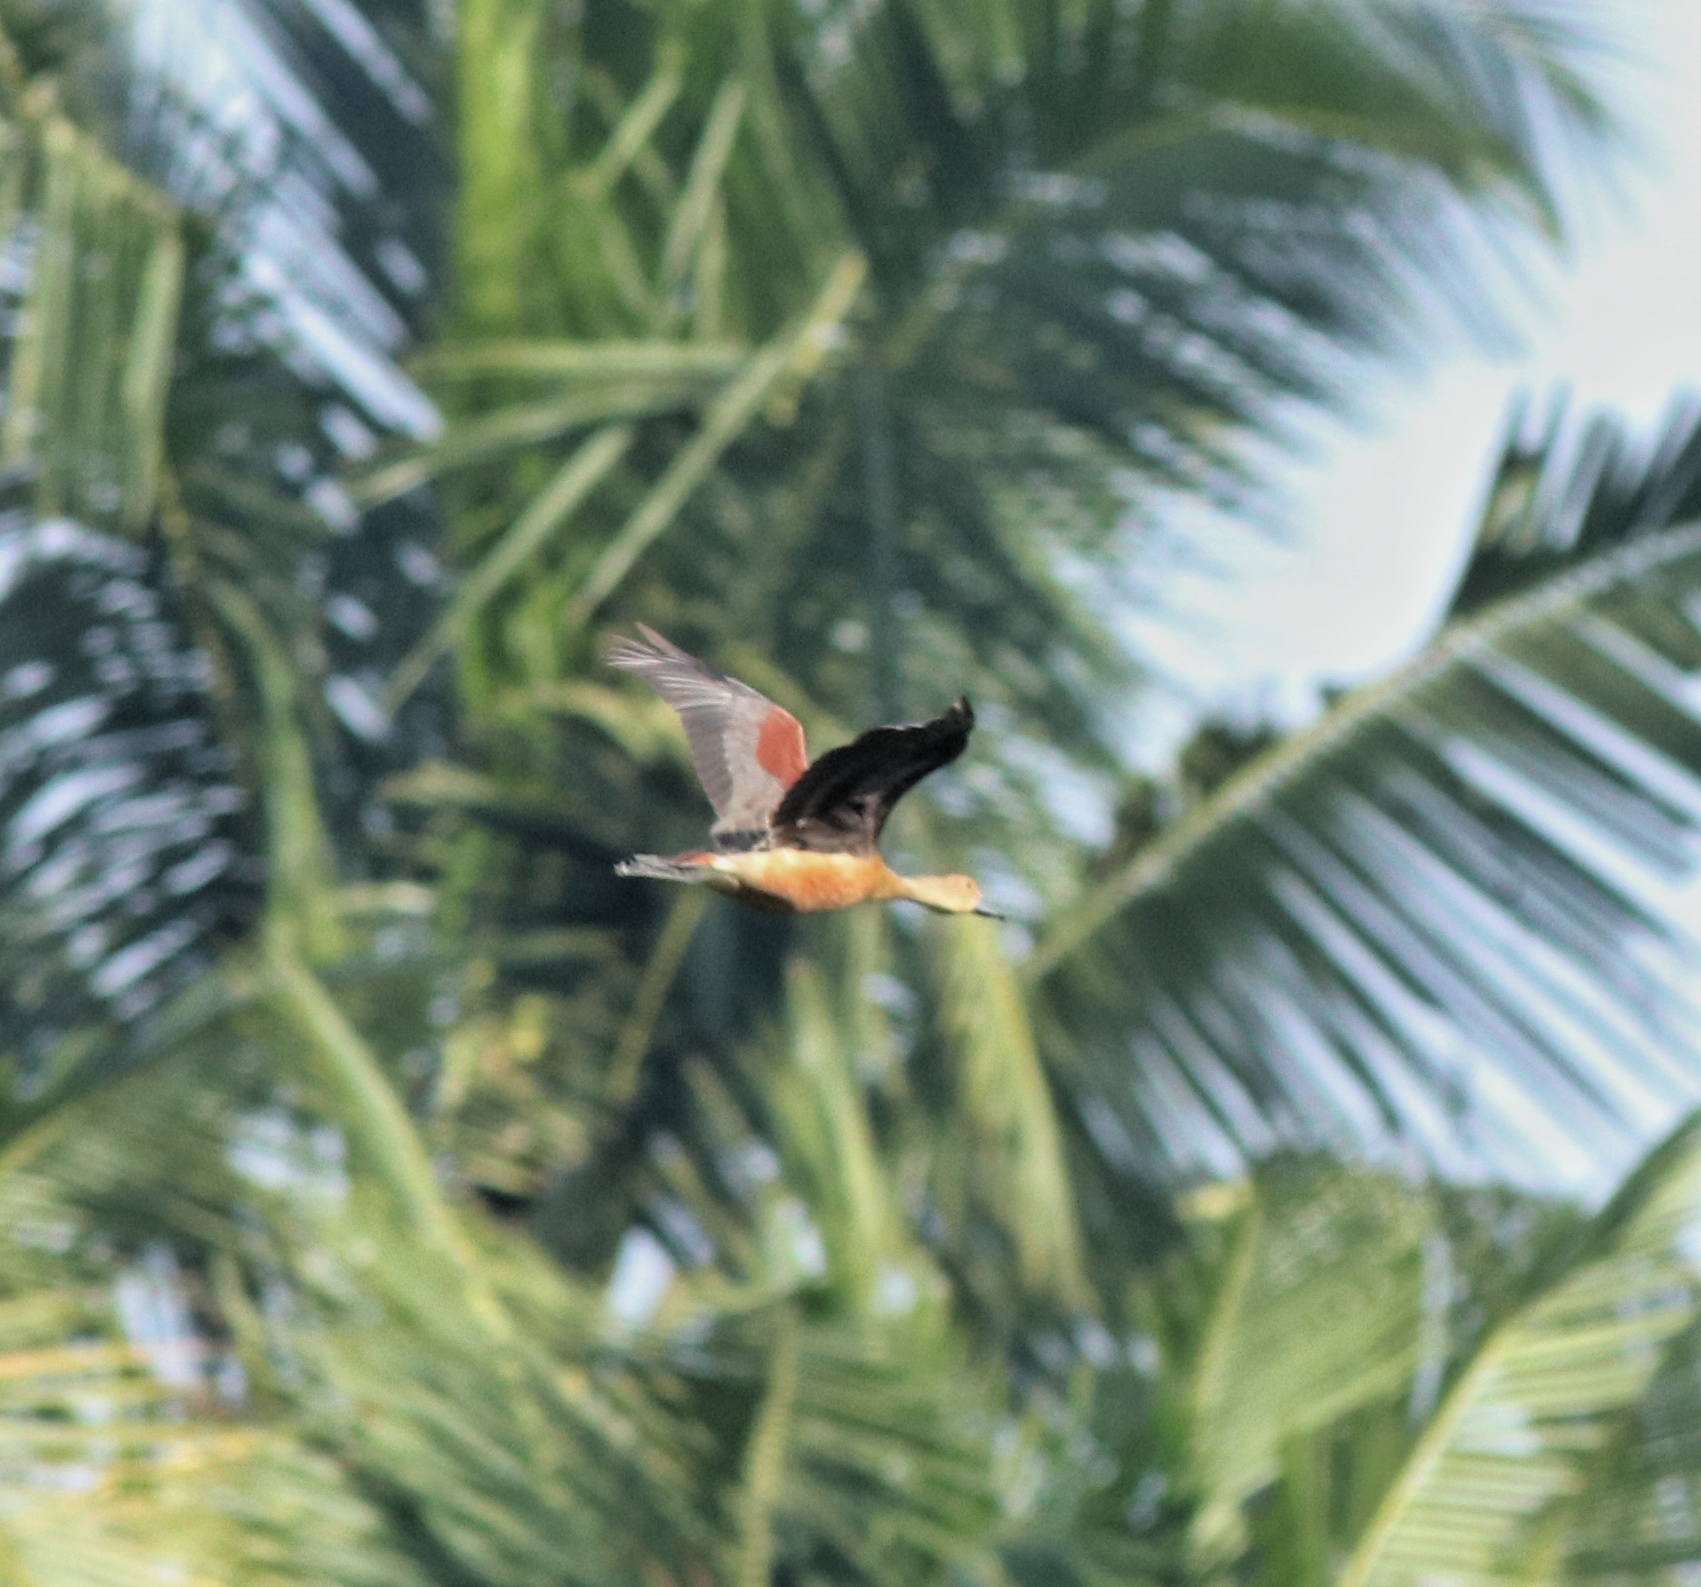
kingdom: Animalia
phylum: Chordata
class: Aves
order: Anseriformes
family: Anatidae
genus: Dendrocygna
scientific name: Dendrocygna javanica
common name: Lesser whistling-duck
